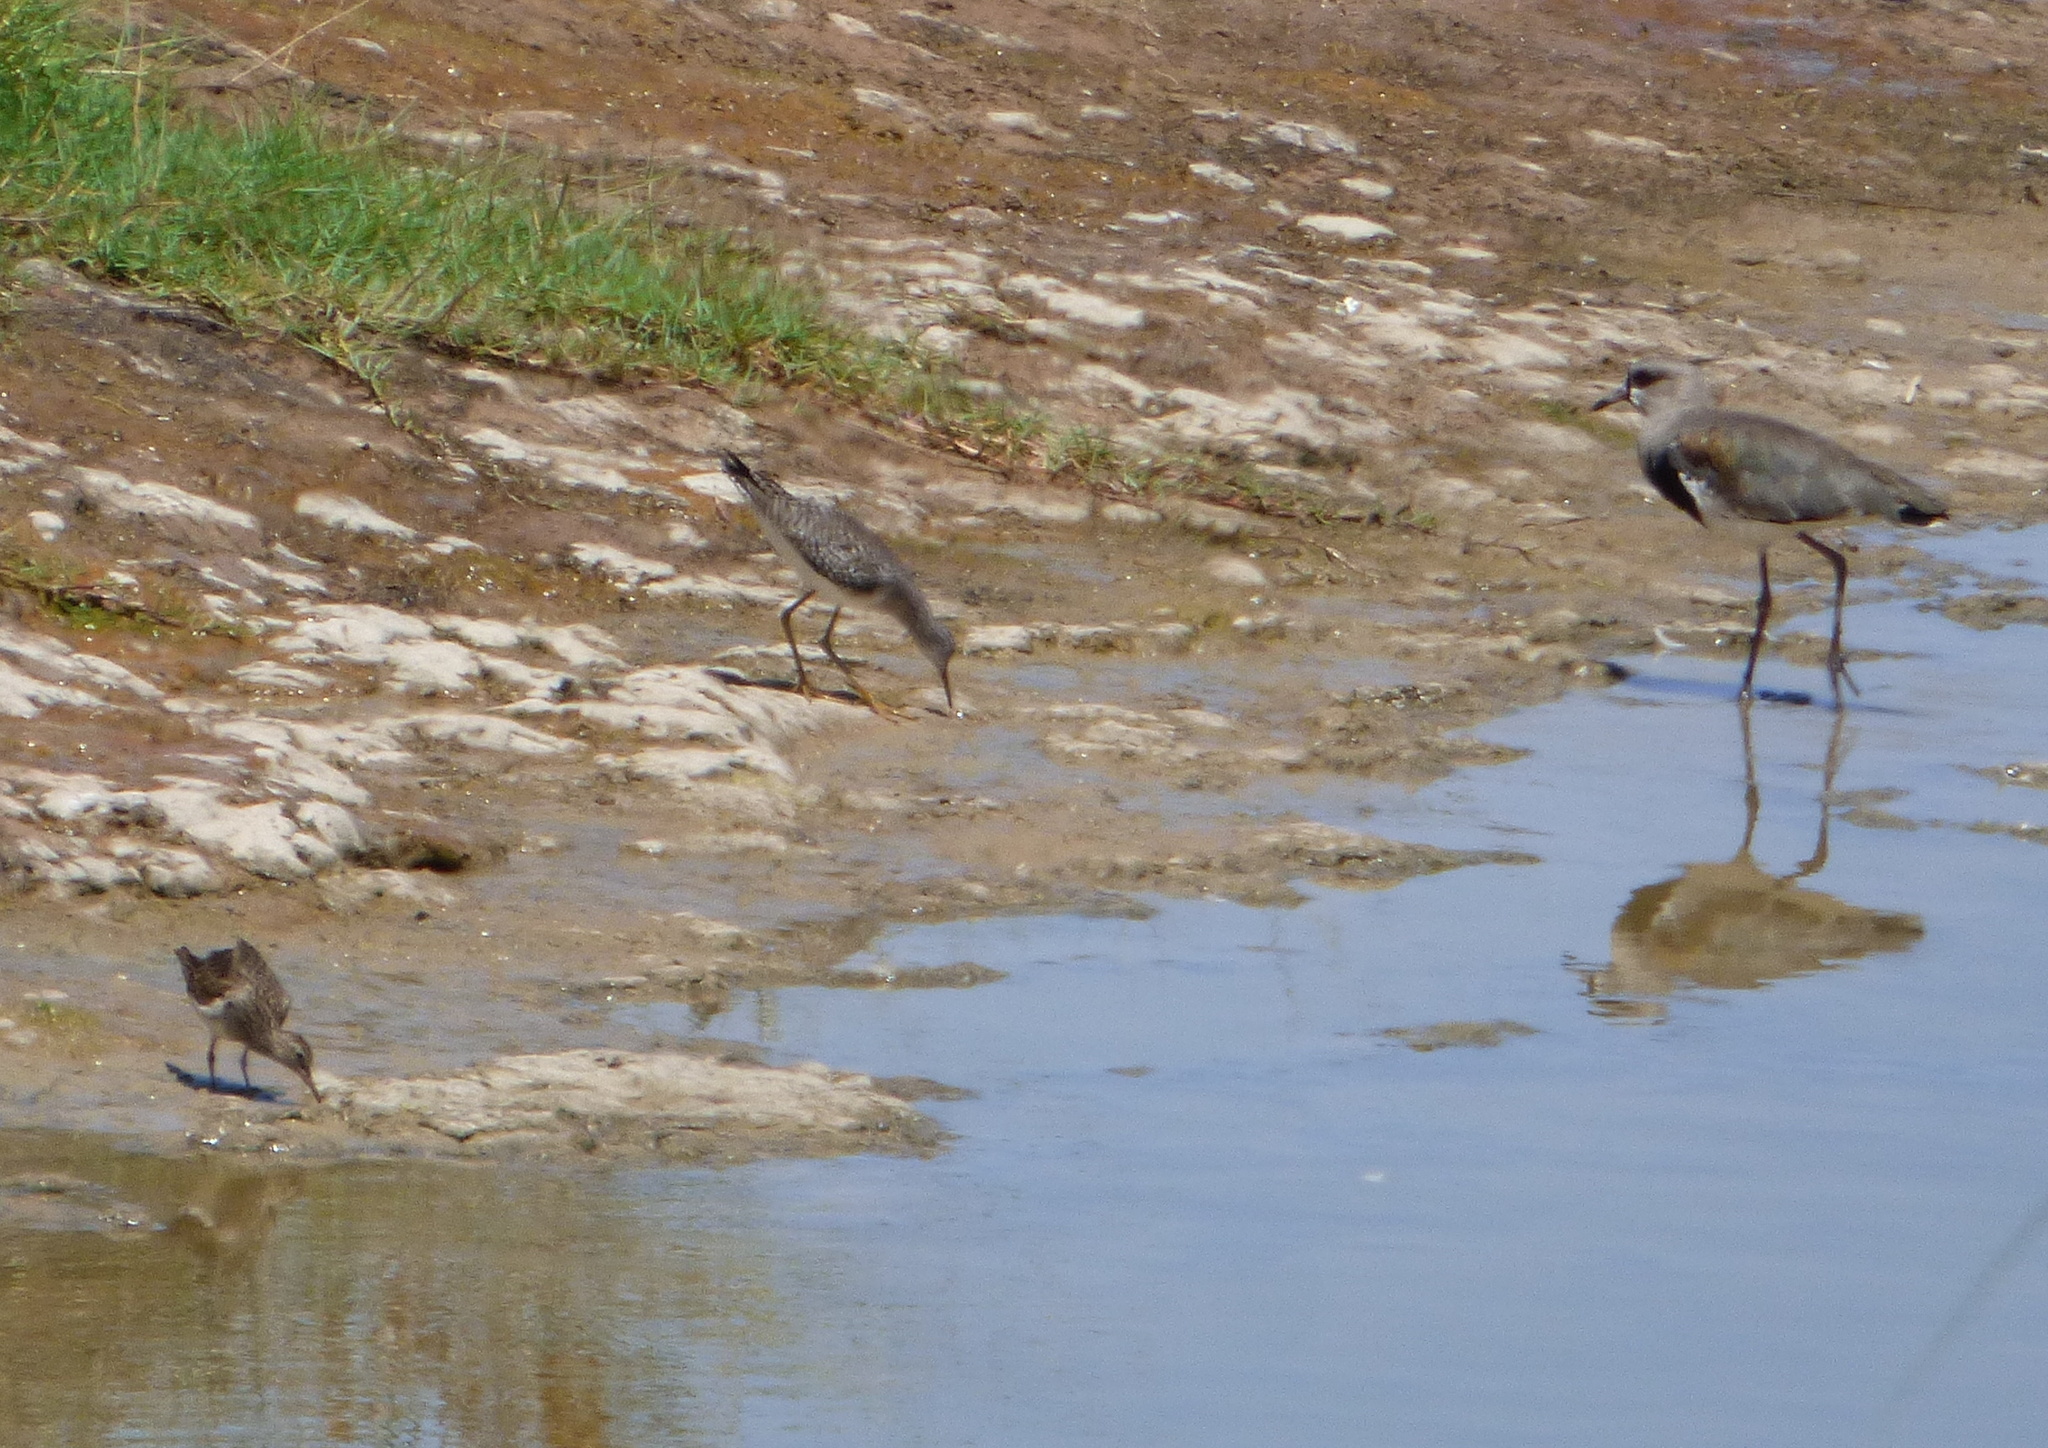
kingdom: Animalia
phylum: Chordata
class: Aves
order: Charadriiformes
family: Scolopacidae
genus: Calidris
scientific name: Calidris melanotos
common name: Pectoral sandpiper
